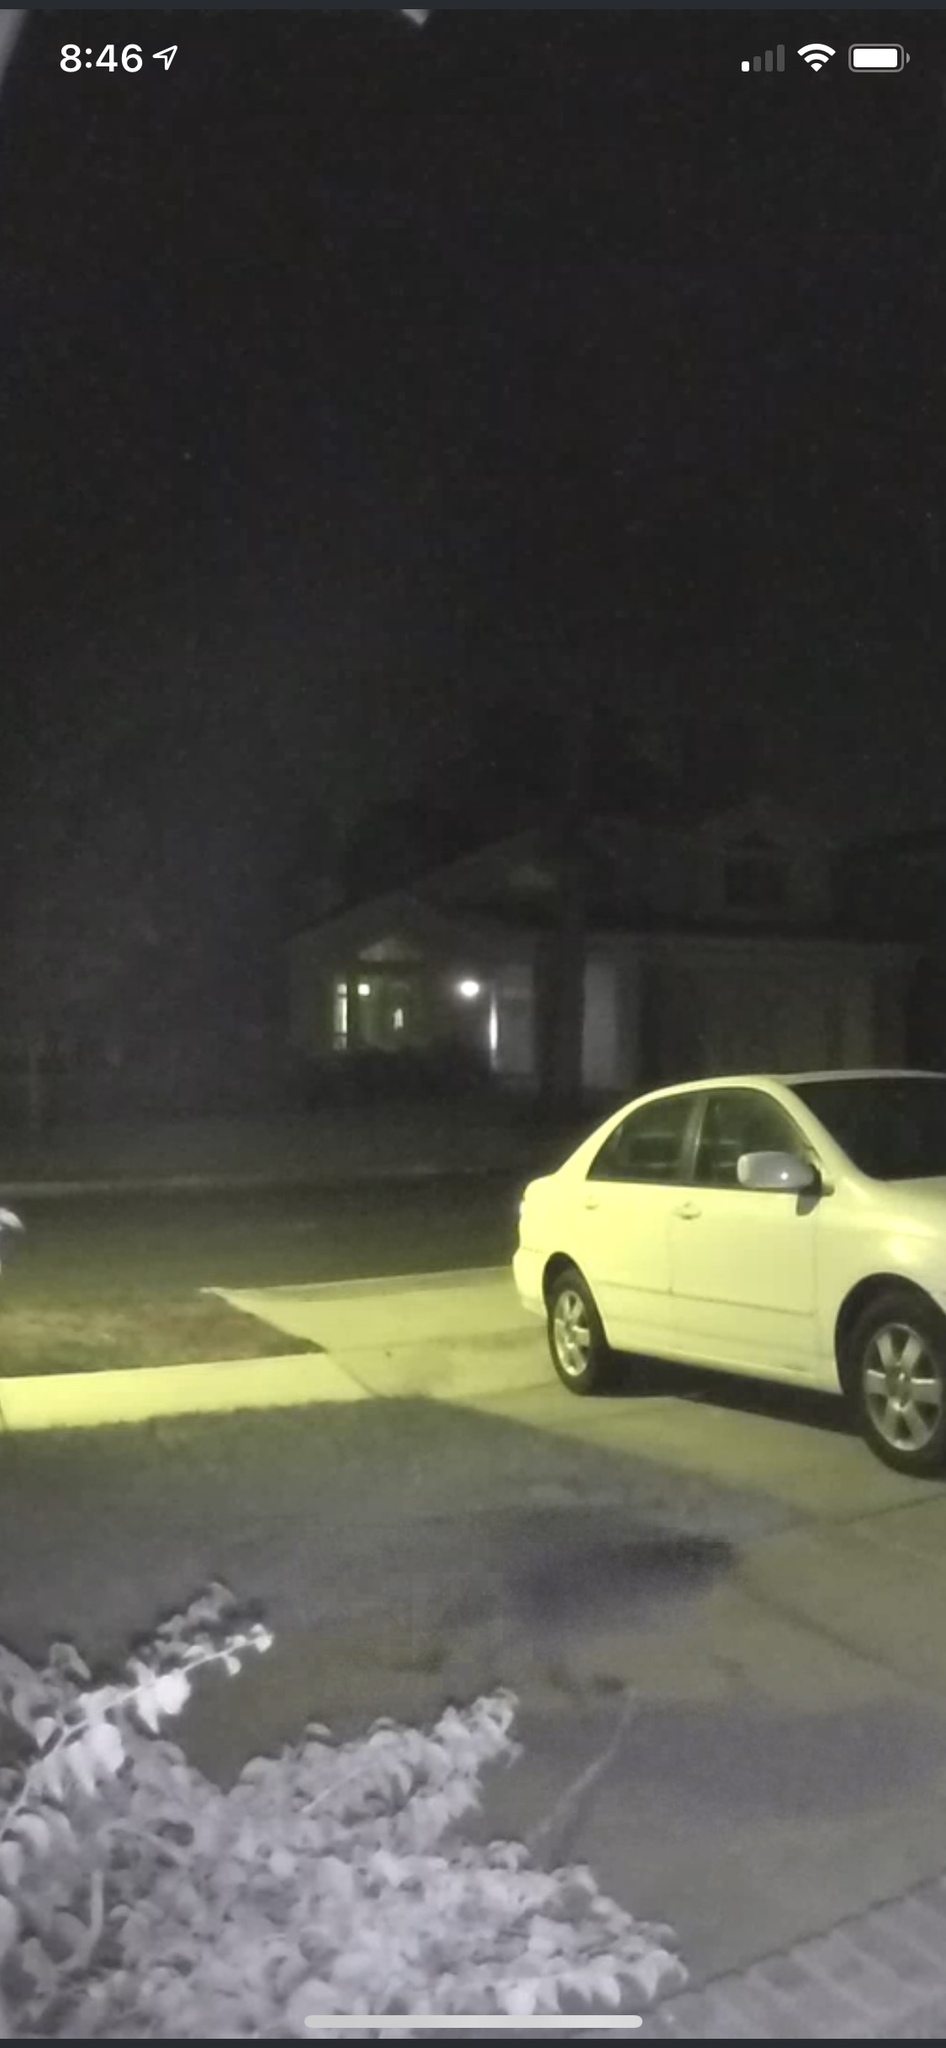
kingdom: Animalia
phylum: Chordata
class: Mammalia
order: Carnivora
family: Procyonidae
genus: Procyon
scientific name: Procyon lotor
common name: Raccoon
